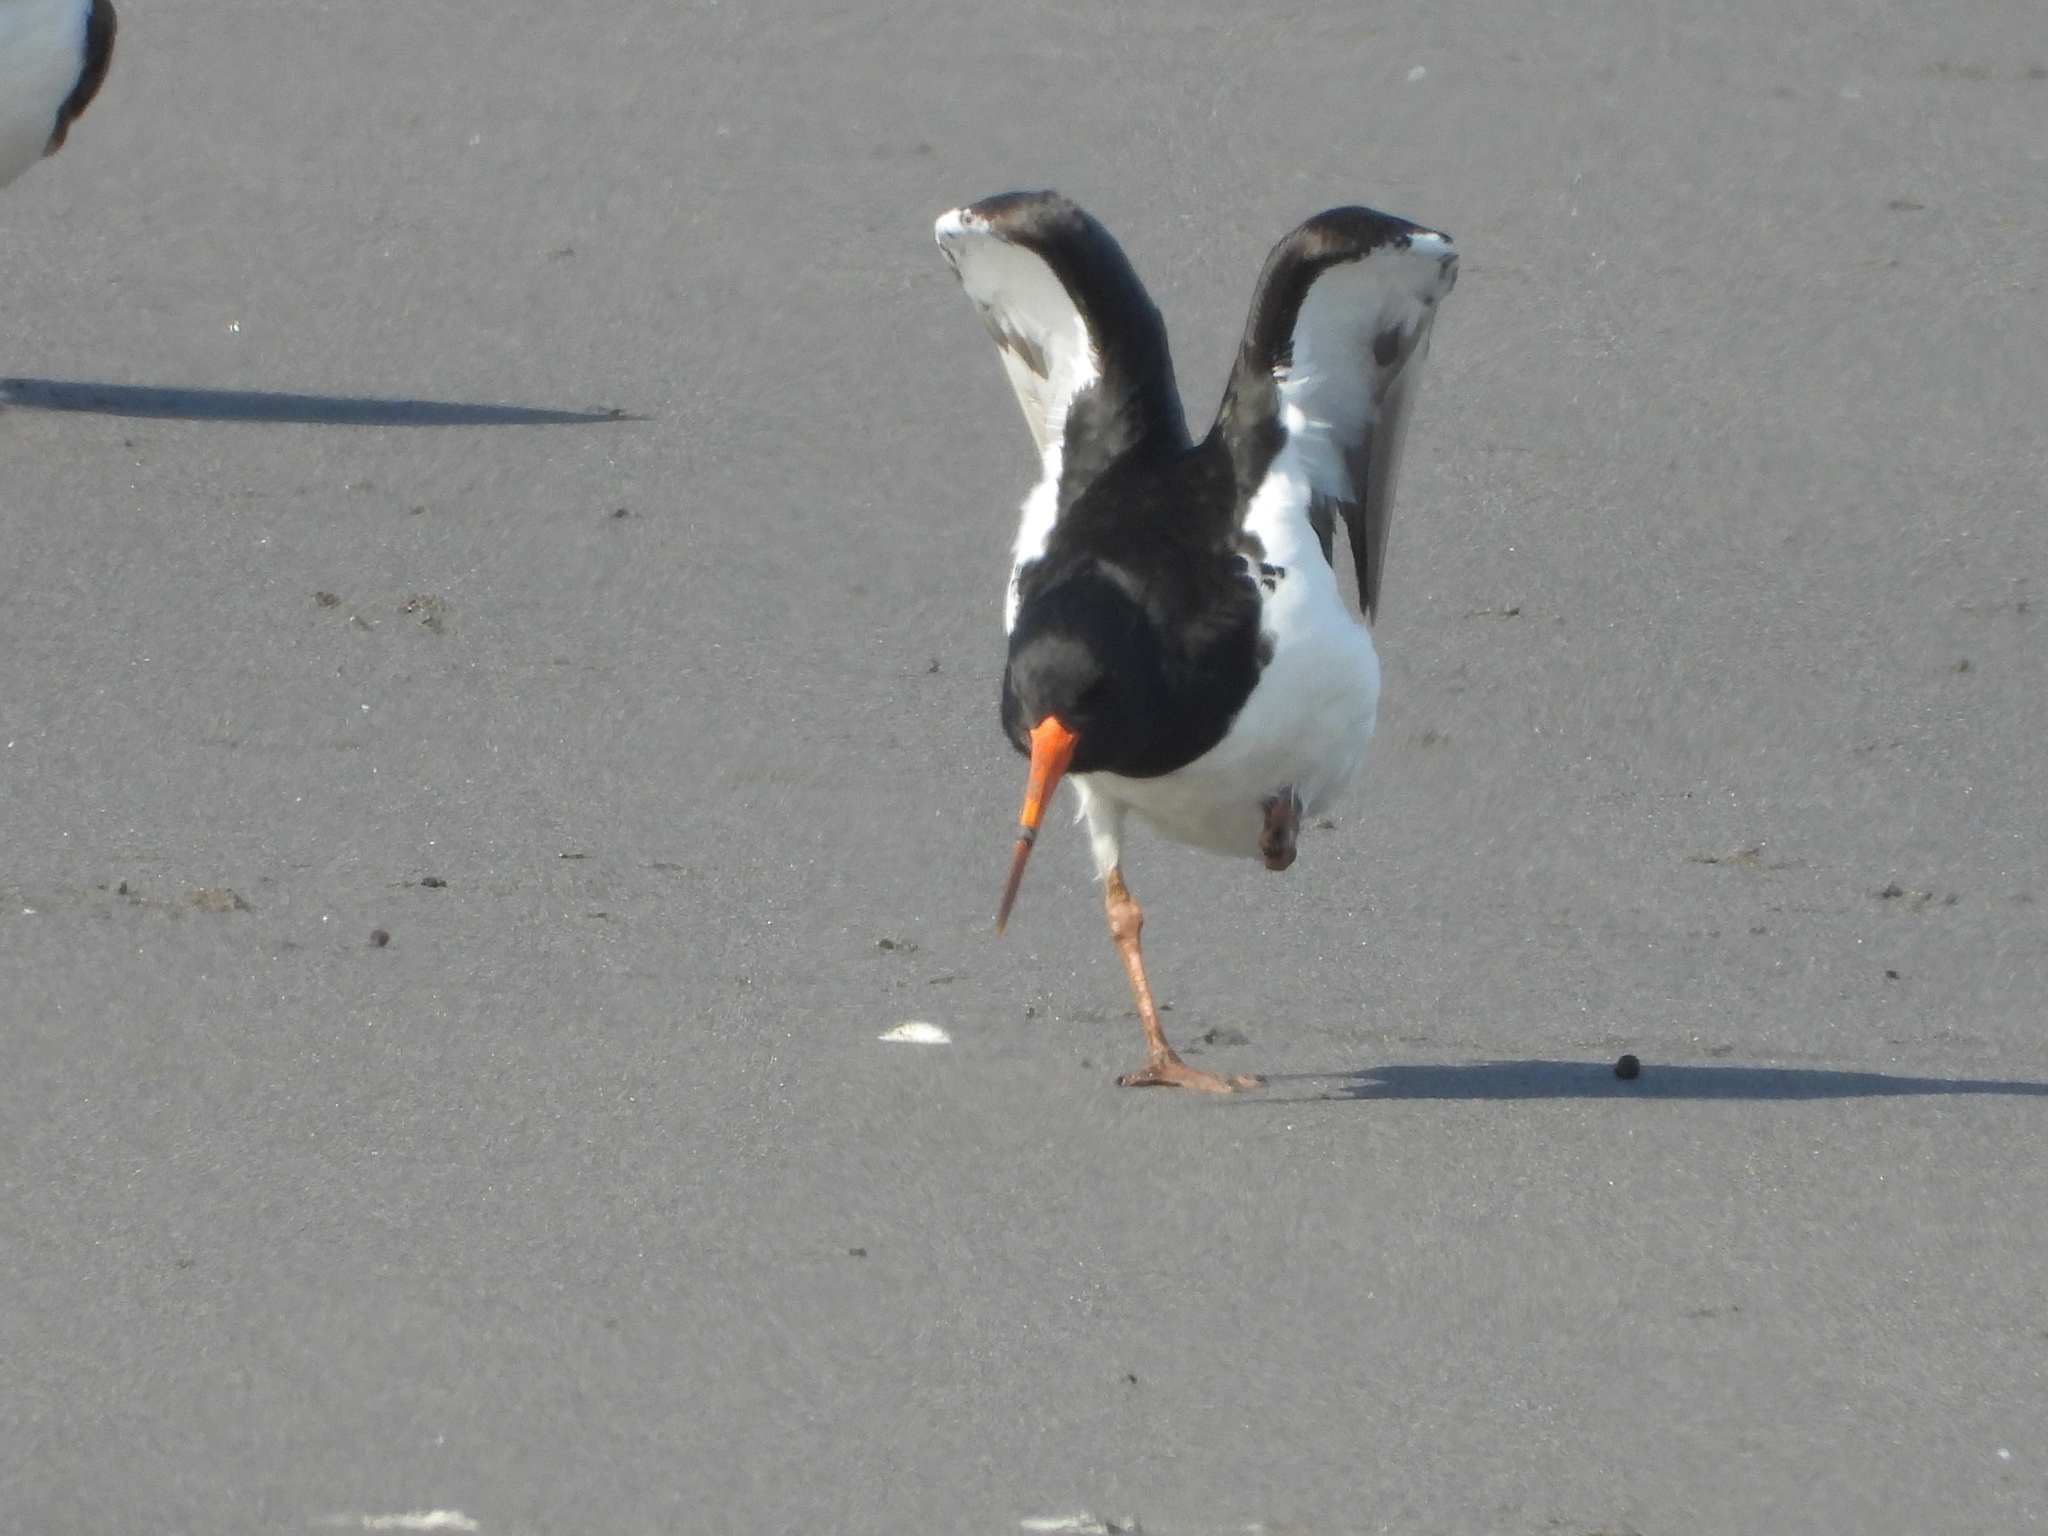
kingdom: Animalia
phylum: Chordata
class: Aves
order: Charadriiformes
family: Haematopodidae
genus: Haematopus
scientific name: Haematopus finschi
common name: South island oystercatcher
